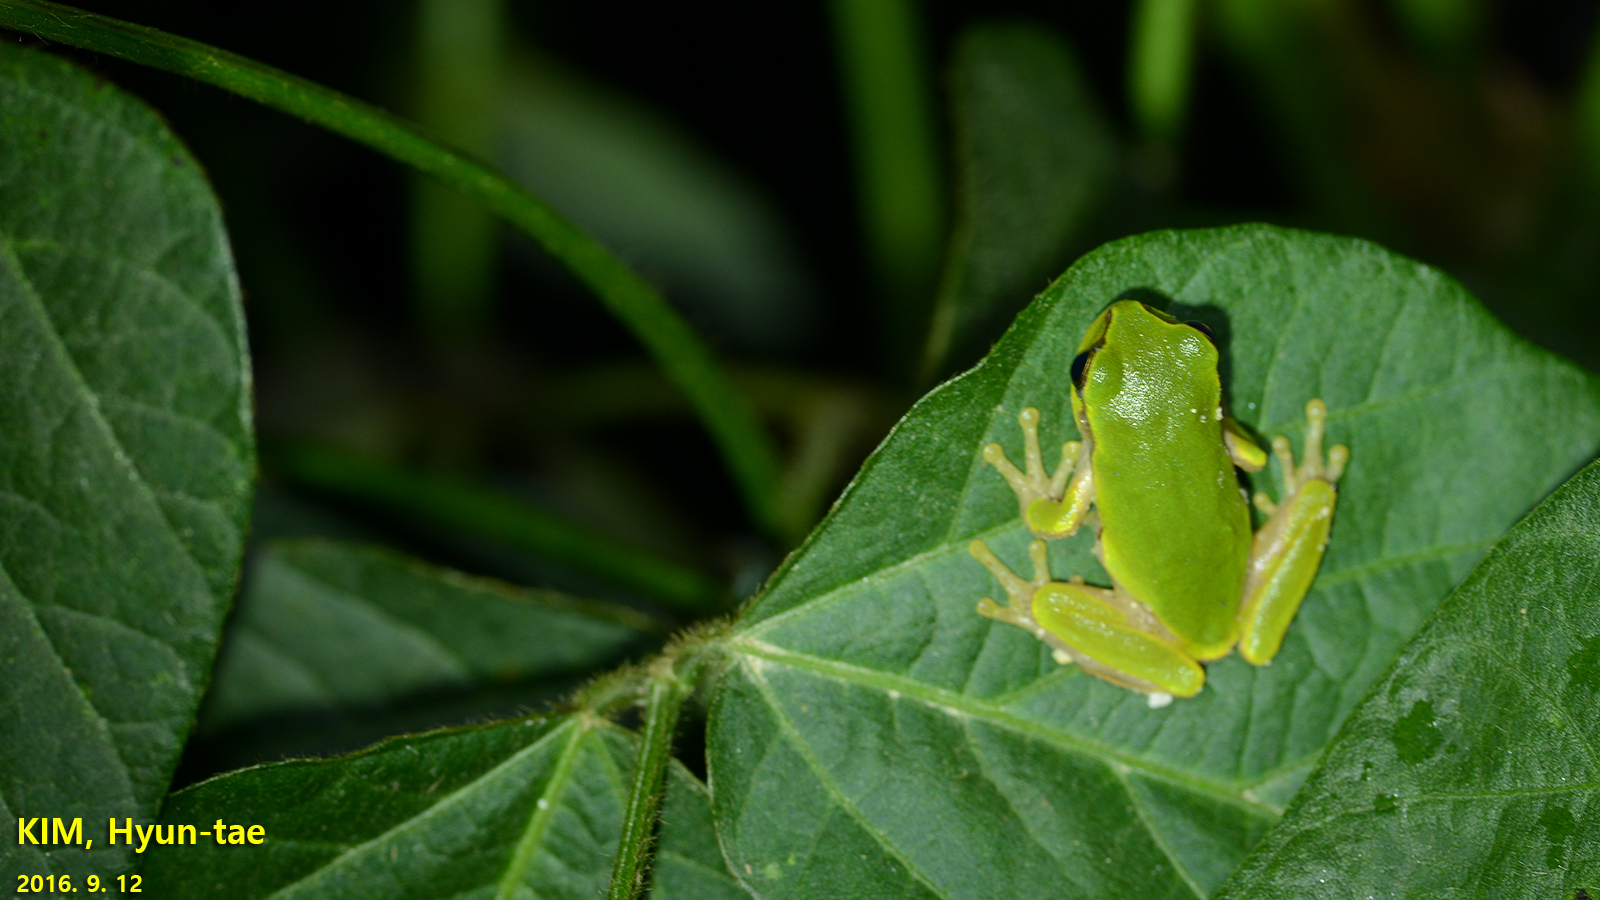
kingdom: Animalia
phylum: Chordata
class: Amphibia
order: Anura
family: Hylidae
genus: Dryophytes
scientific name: Dryophytes japonicus
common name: Japanese treefrog
